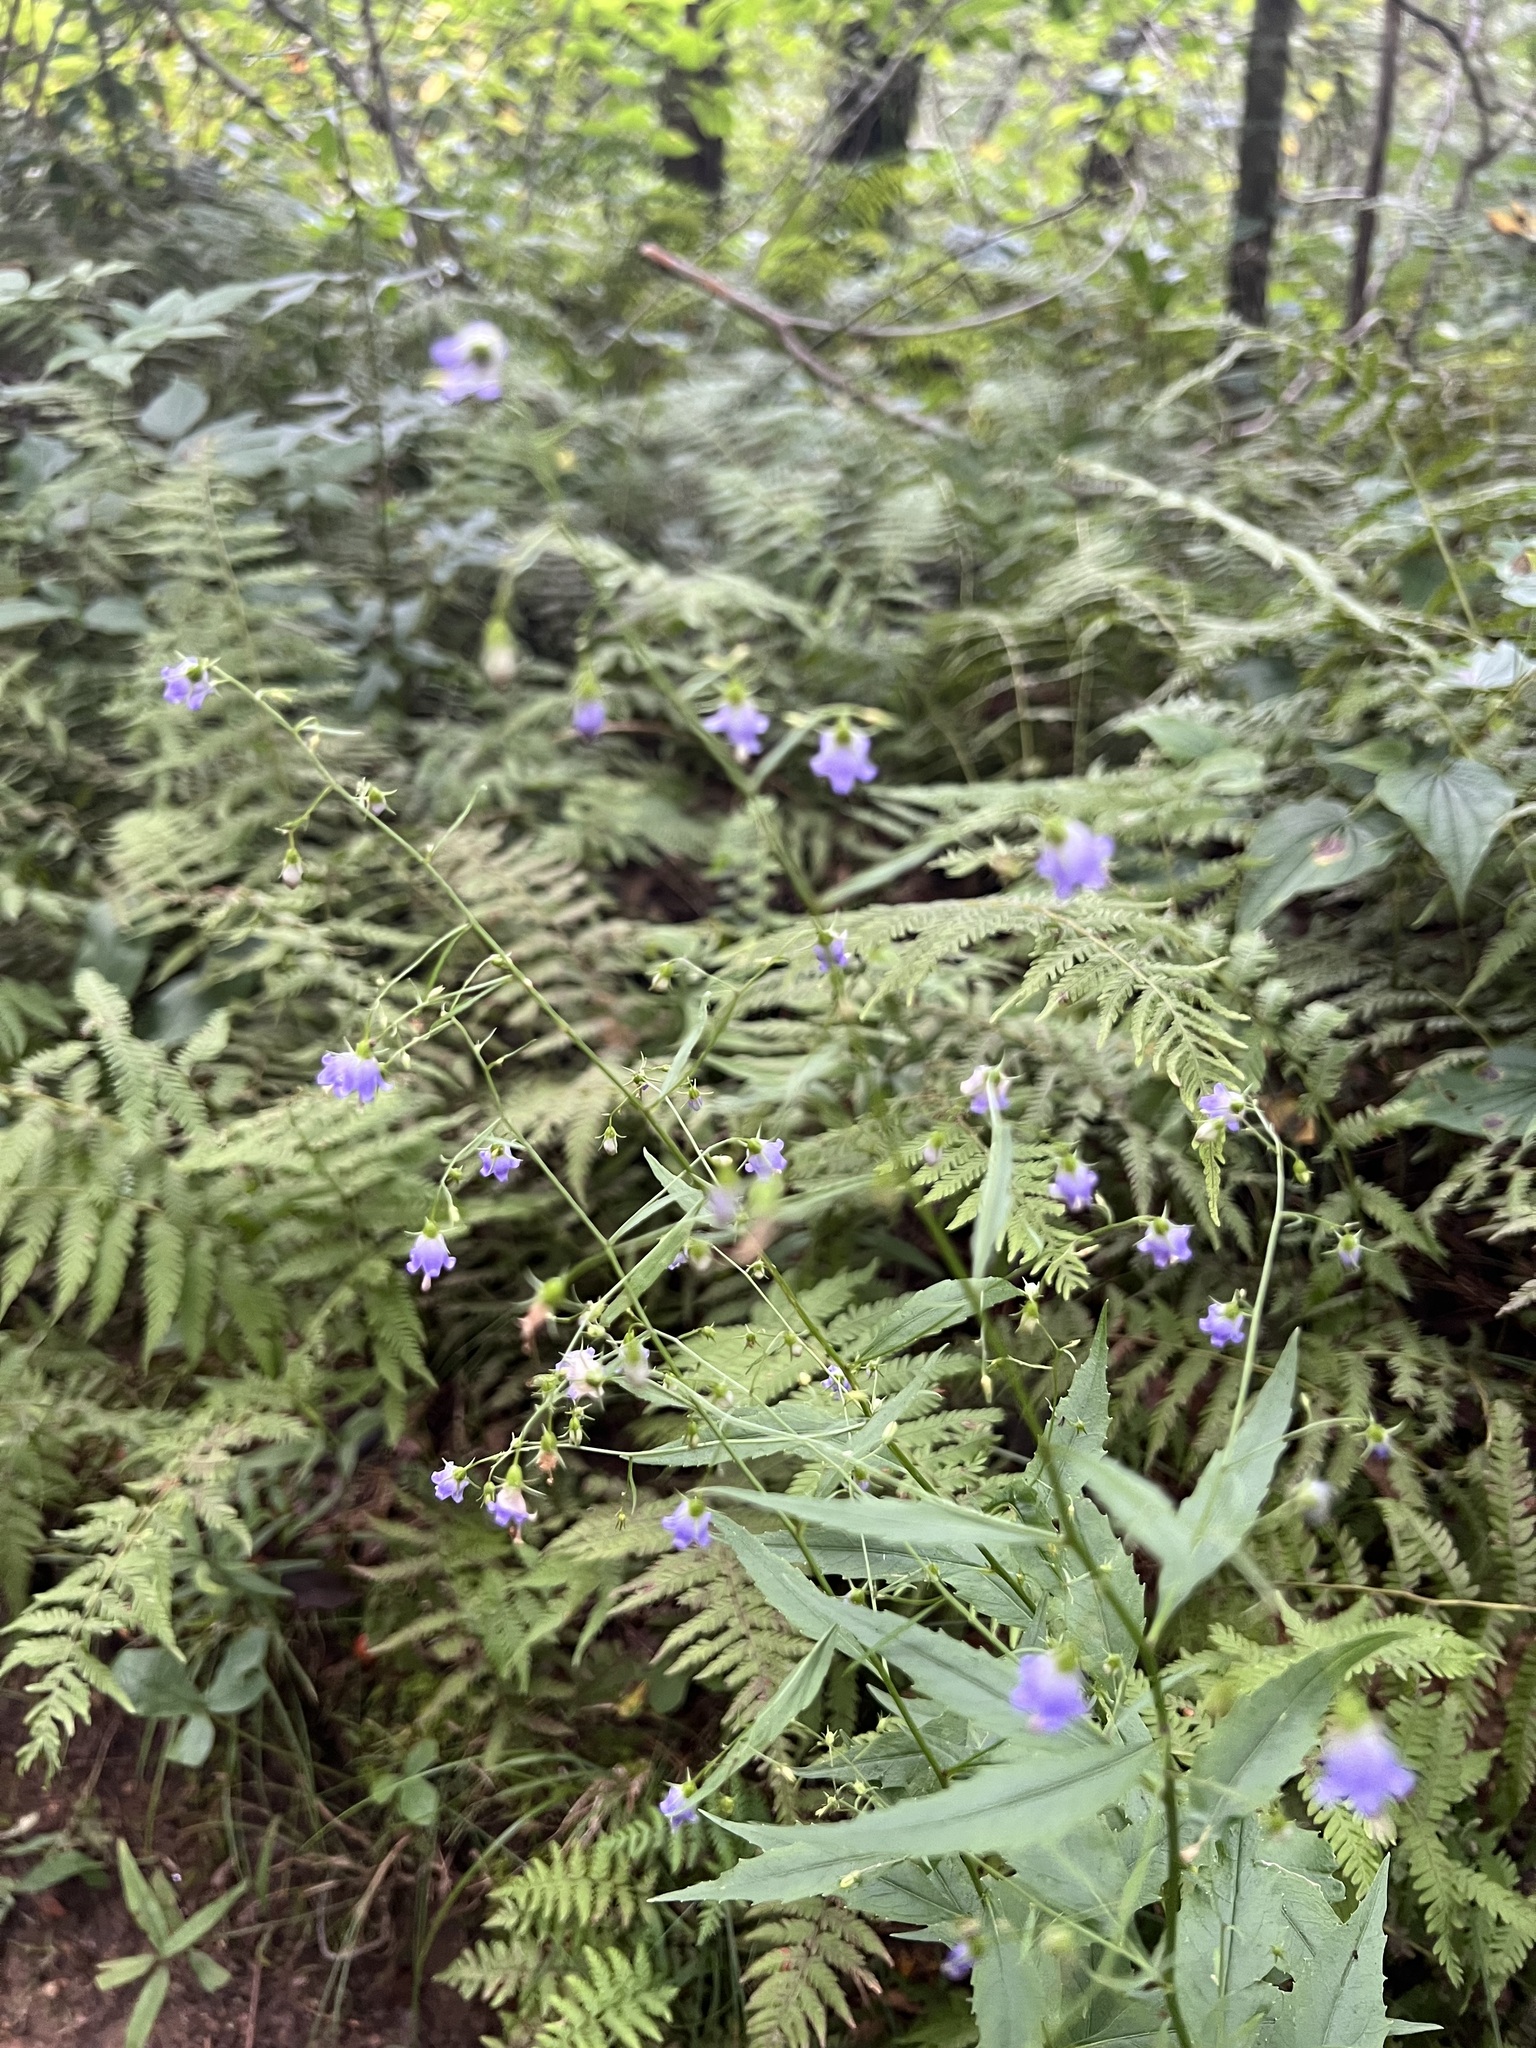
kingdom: Plantae
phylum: Tracheophyta
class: Magnoliopsida
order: Asterales
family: Campanulaceae
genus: Campanula
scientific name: Campanula divaricata
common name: Appalachian bellflower
